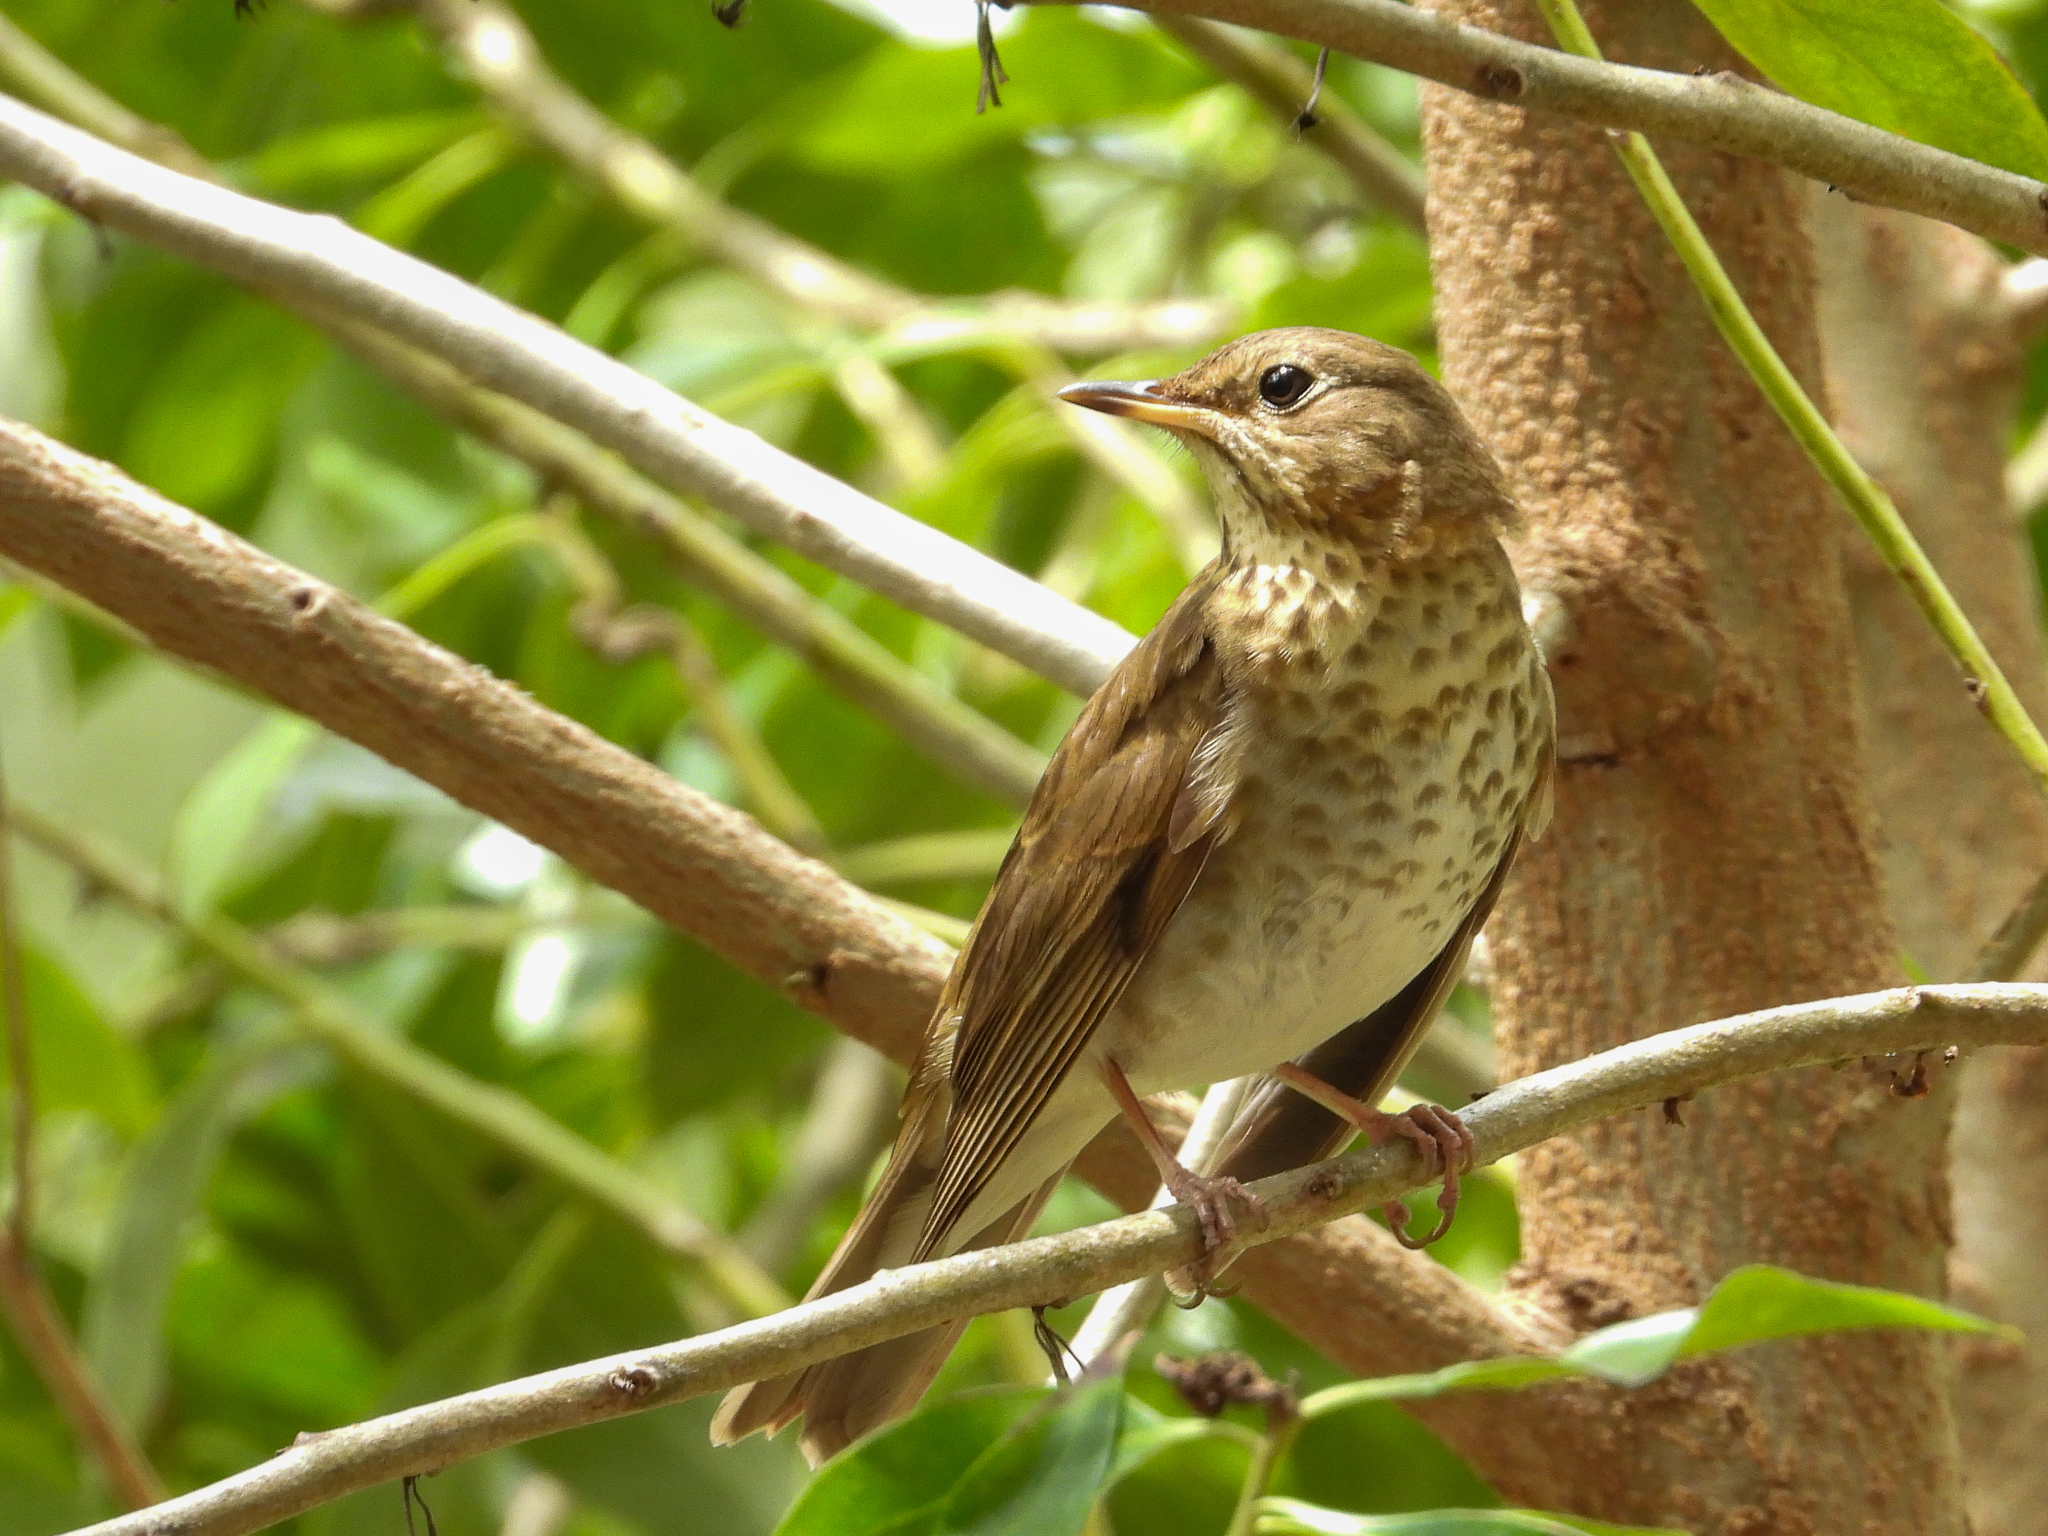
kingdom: Animalia
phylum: Chordata
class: Aves
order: Passeriformes
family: Turdidae
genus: Catharus
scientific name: Catharus ustulatus
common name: Swainson's thrush
